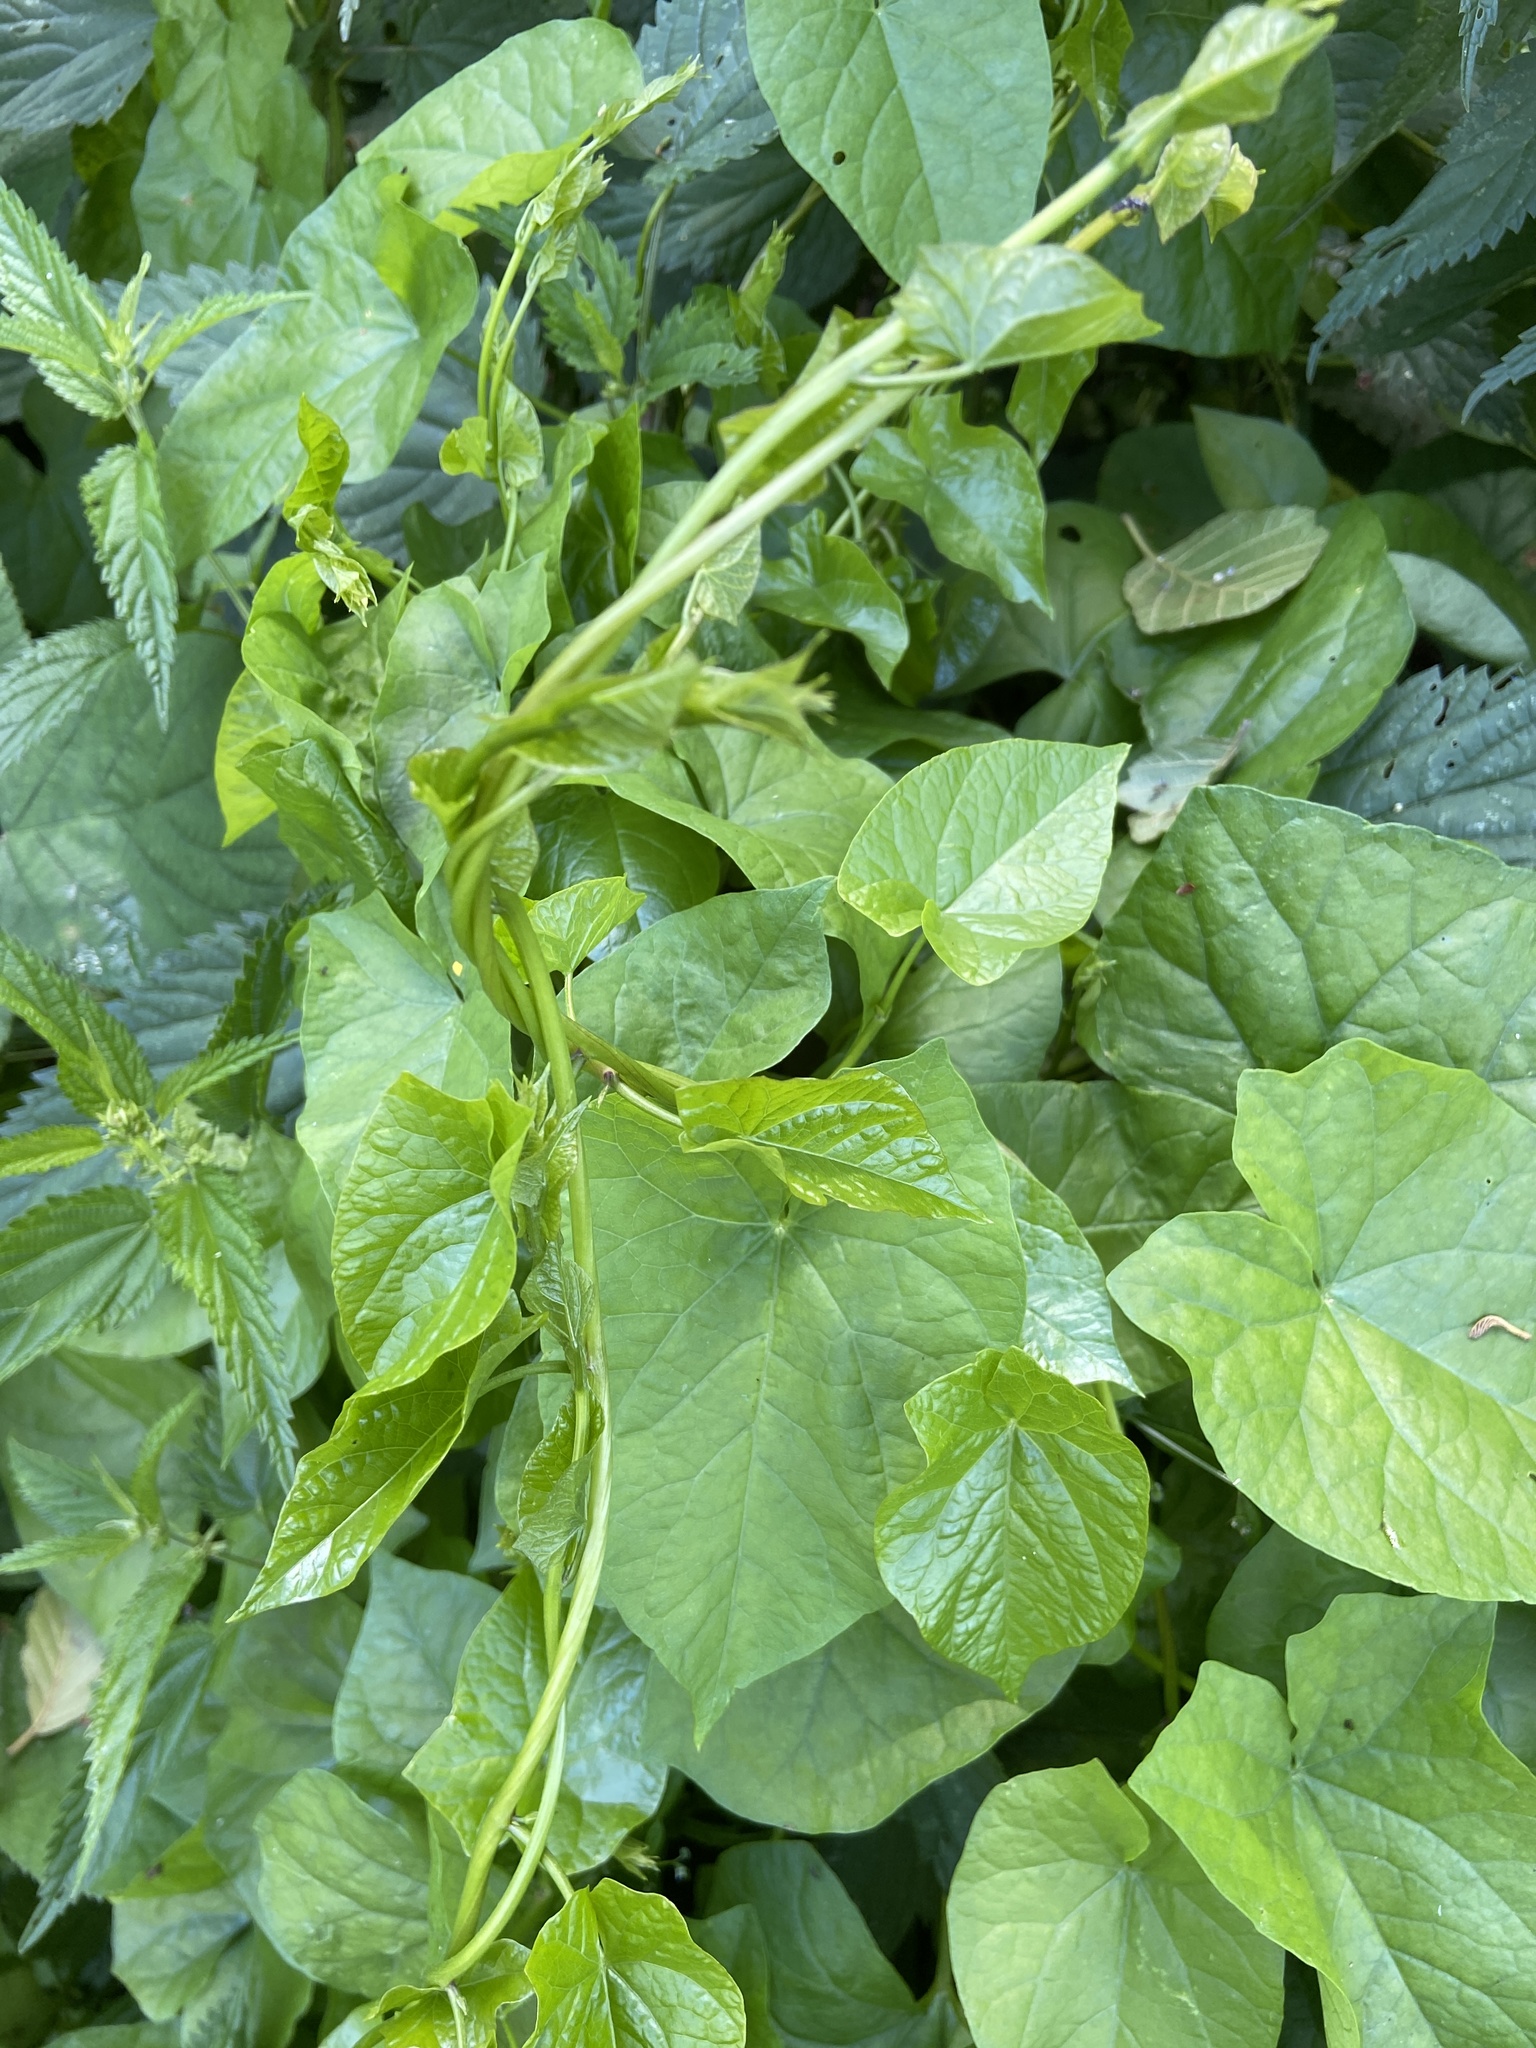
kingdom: Plantae
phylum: Tracheophyta
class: Magnoliopsida
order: Solanales
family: Convolvulaceae
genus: Calystegia
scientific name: Calystegia sepium
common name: Hedge bindweed
